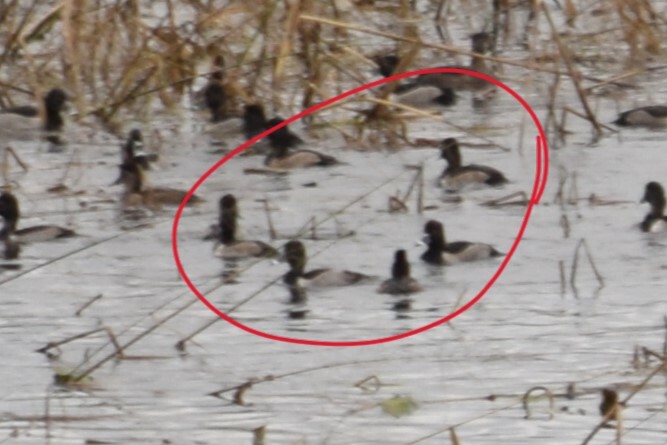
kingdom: Animalia
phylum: Chordata
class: Aves
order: Anseriformes
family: Anatidae
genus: Aythya
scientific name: Aythya collaris
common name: Ring-necked duck
